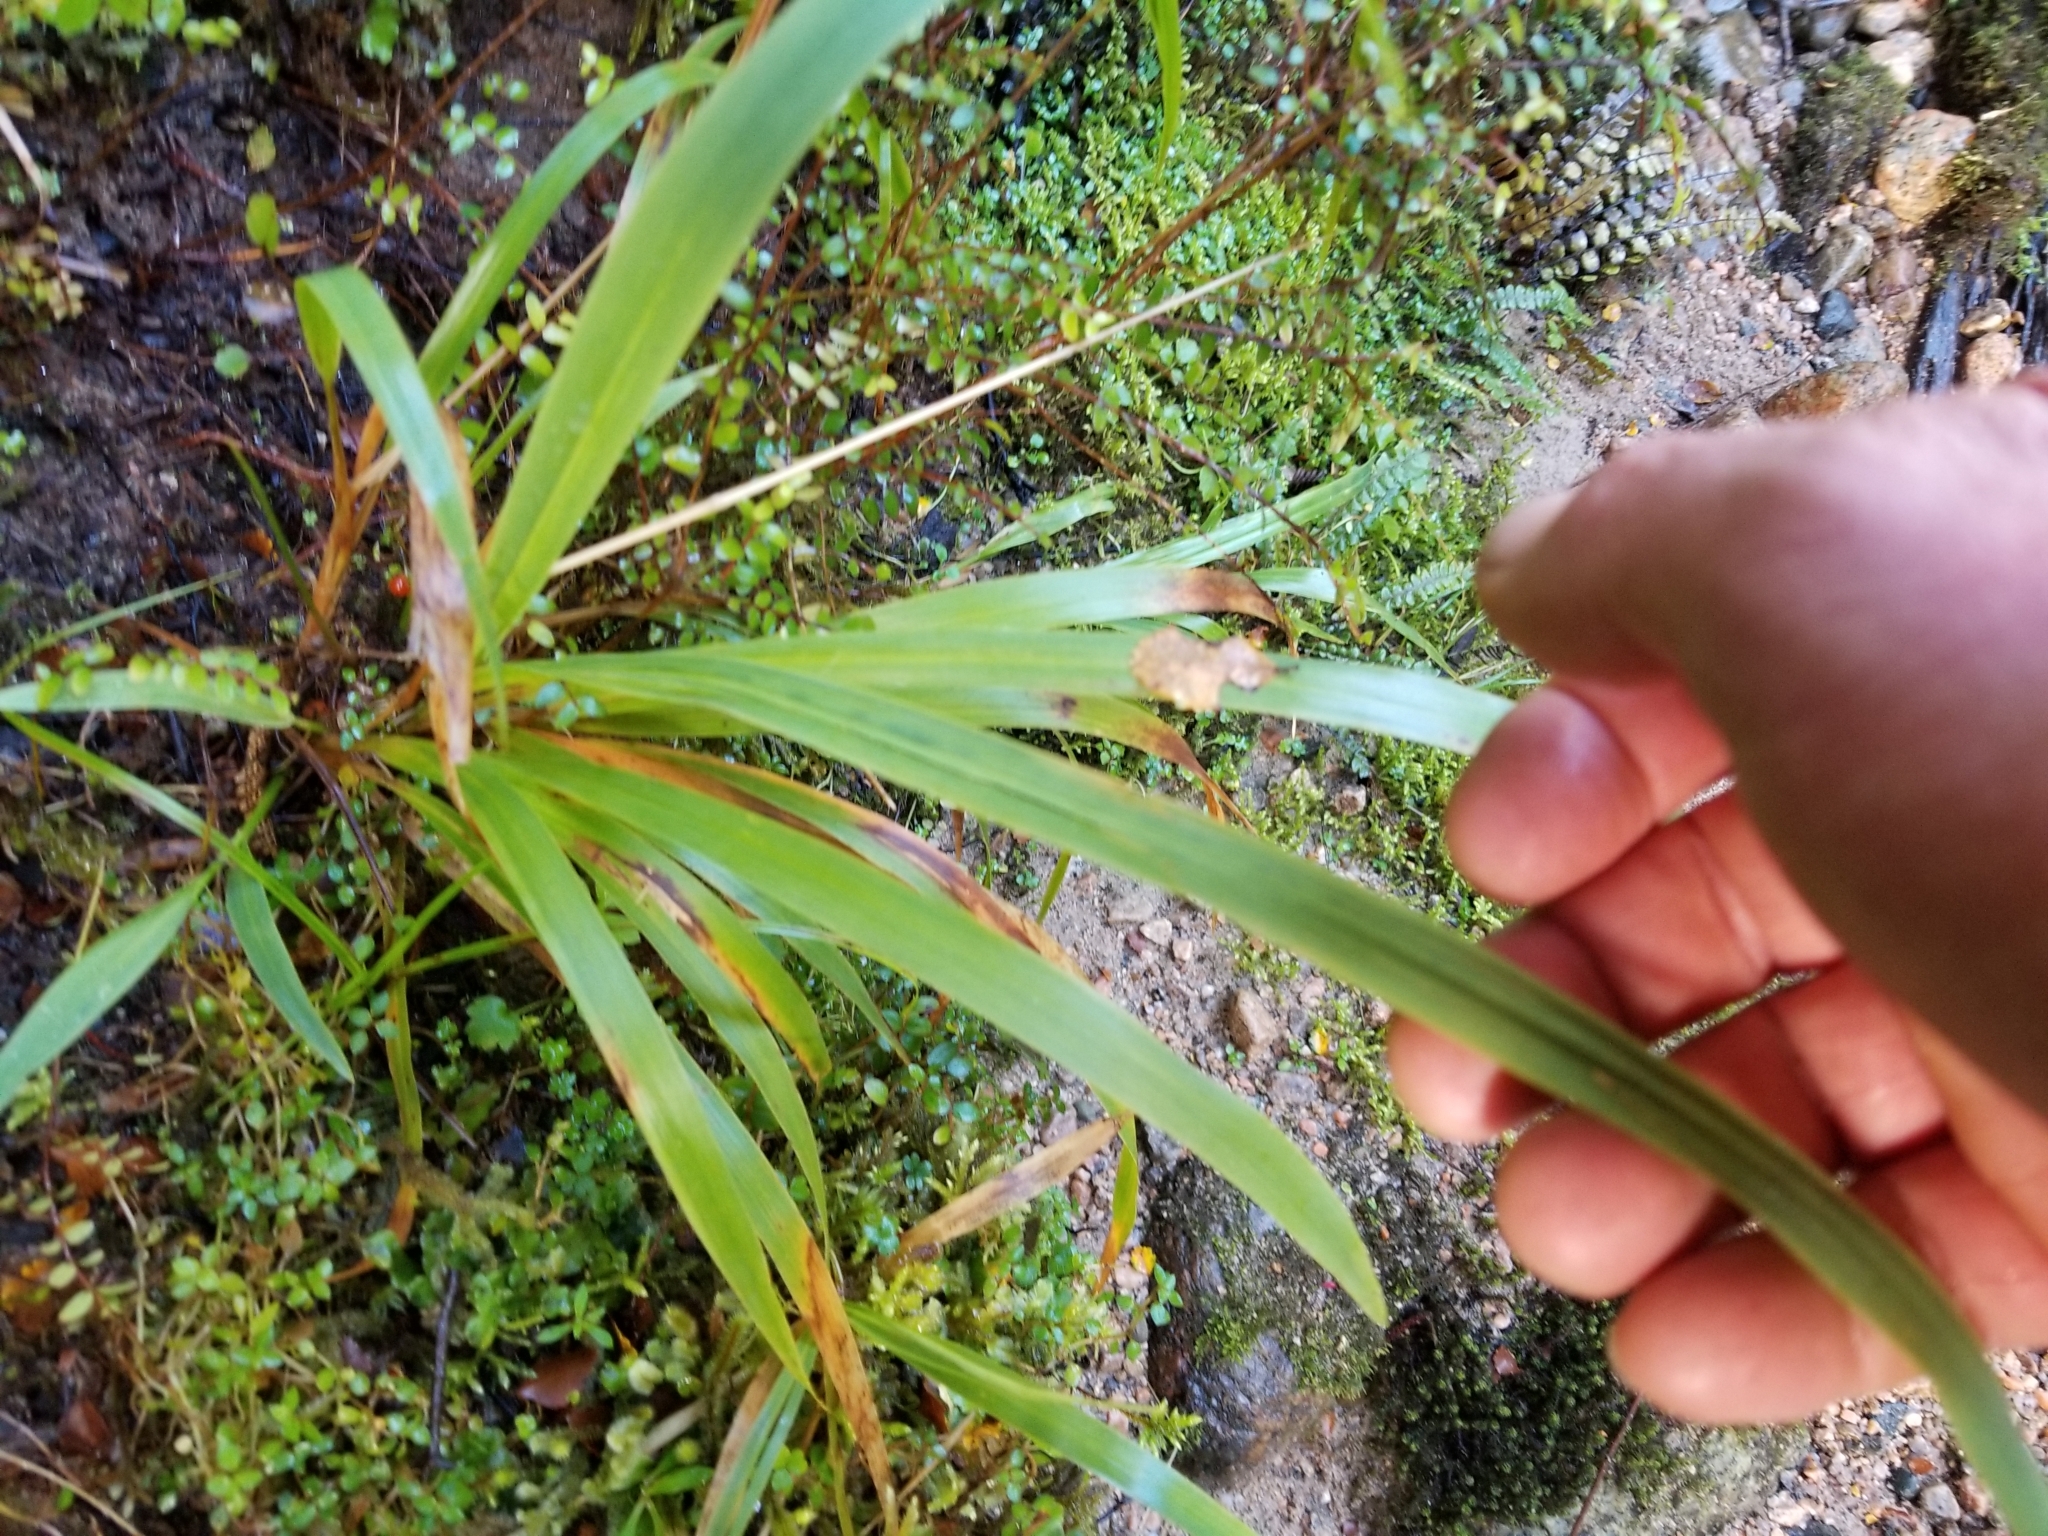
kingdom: Plantae
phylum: Tracheophyta
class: Liliopsida
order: Poales
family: Poaceae
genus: Ehrharta
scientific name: Ehrharta diplax
